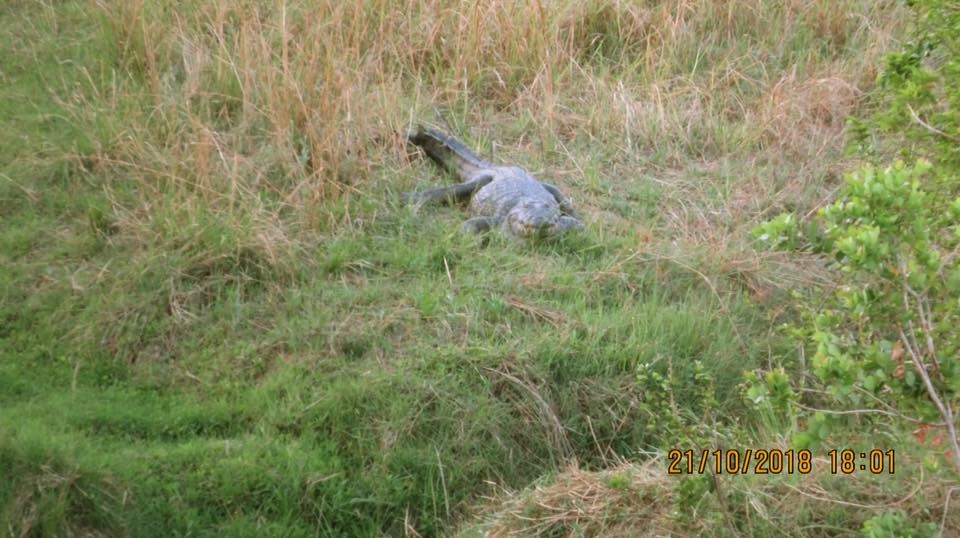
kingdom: Animalia
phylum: Chordata
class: Crocodylia
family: Crocodylidae
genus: Crocodylus
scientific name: Crocodylus niloticus
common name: Nile crocodile
